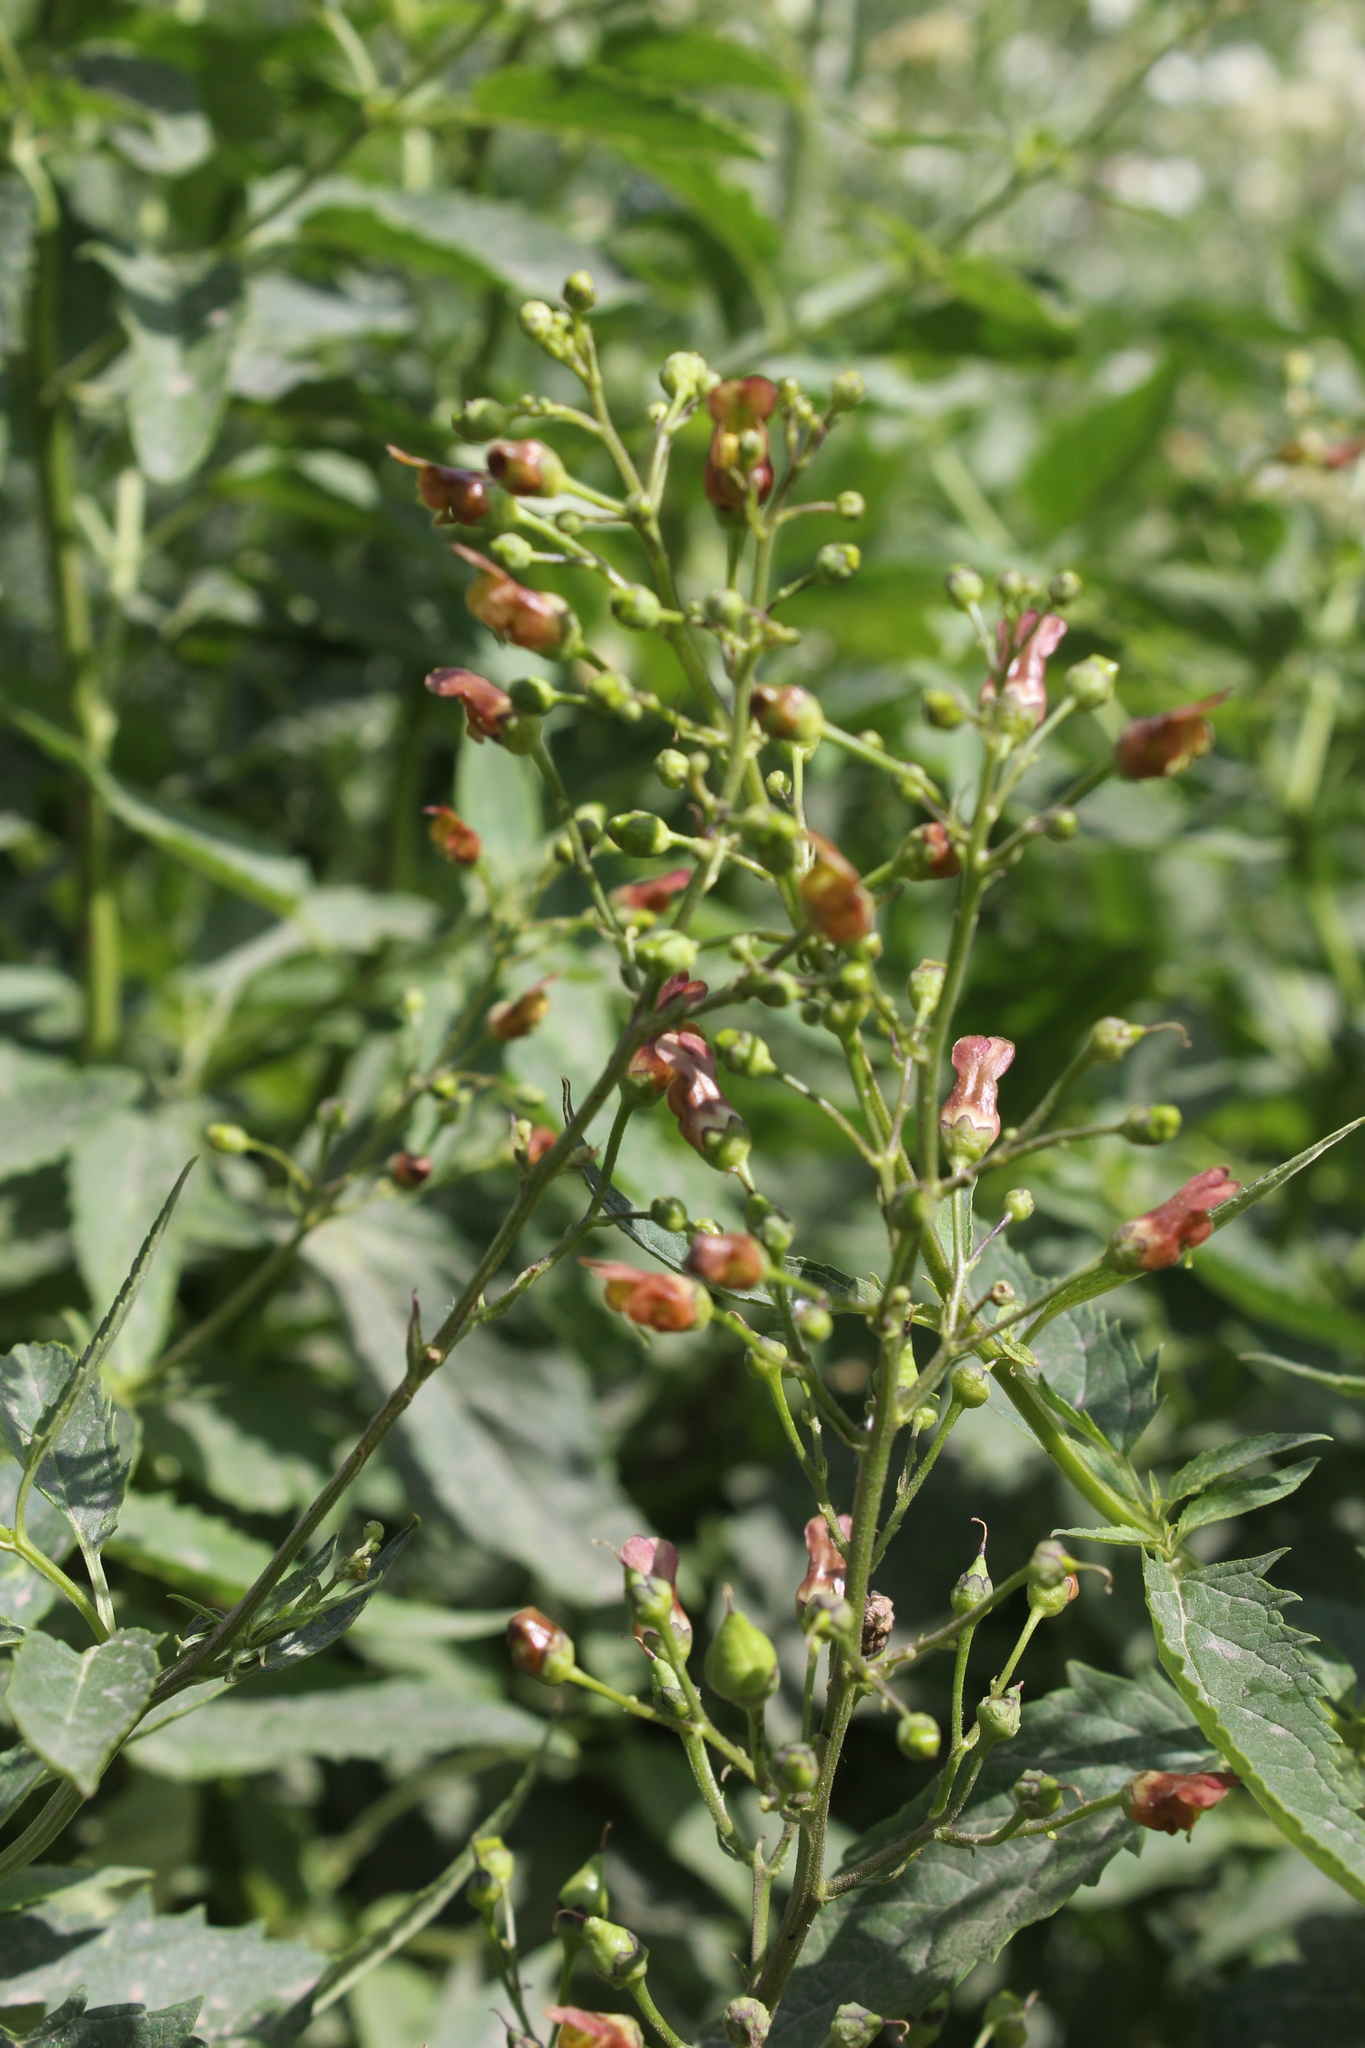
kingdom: Plantae
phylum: Tracheophyta
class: Magnoliopsida
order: Lamiales
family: Scrophulariaceae
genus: Scrophularia
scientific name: Scrophularia lanceolata
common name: American figwort
